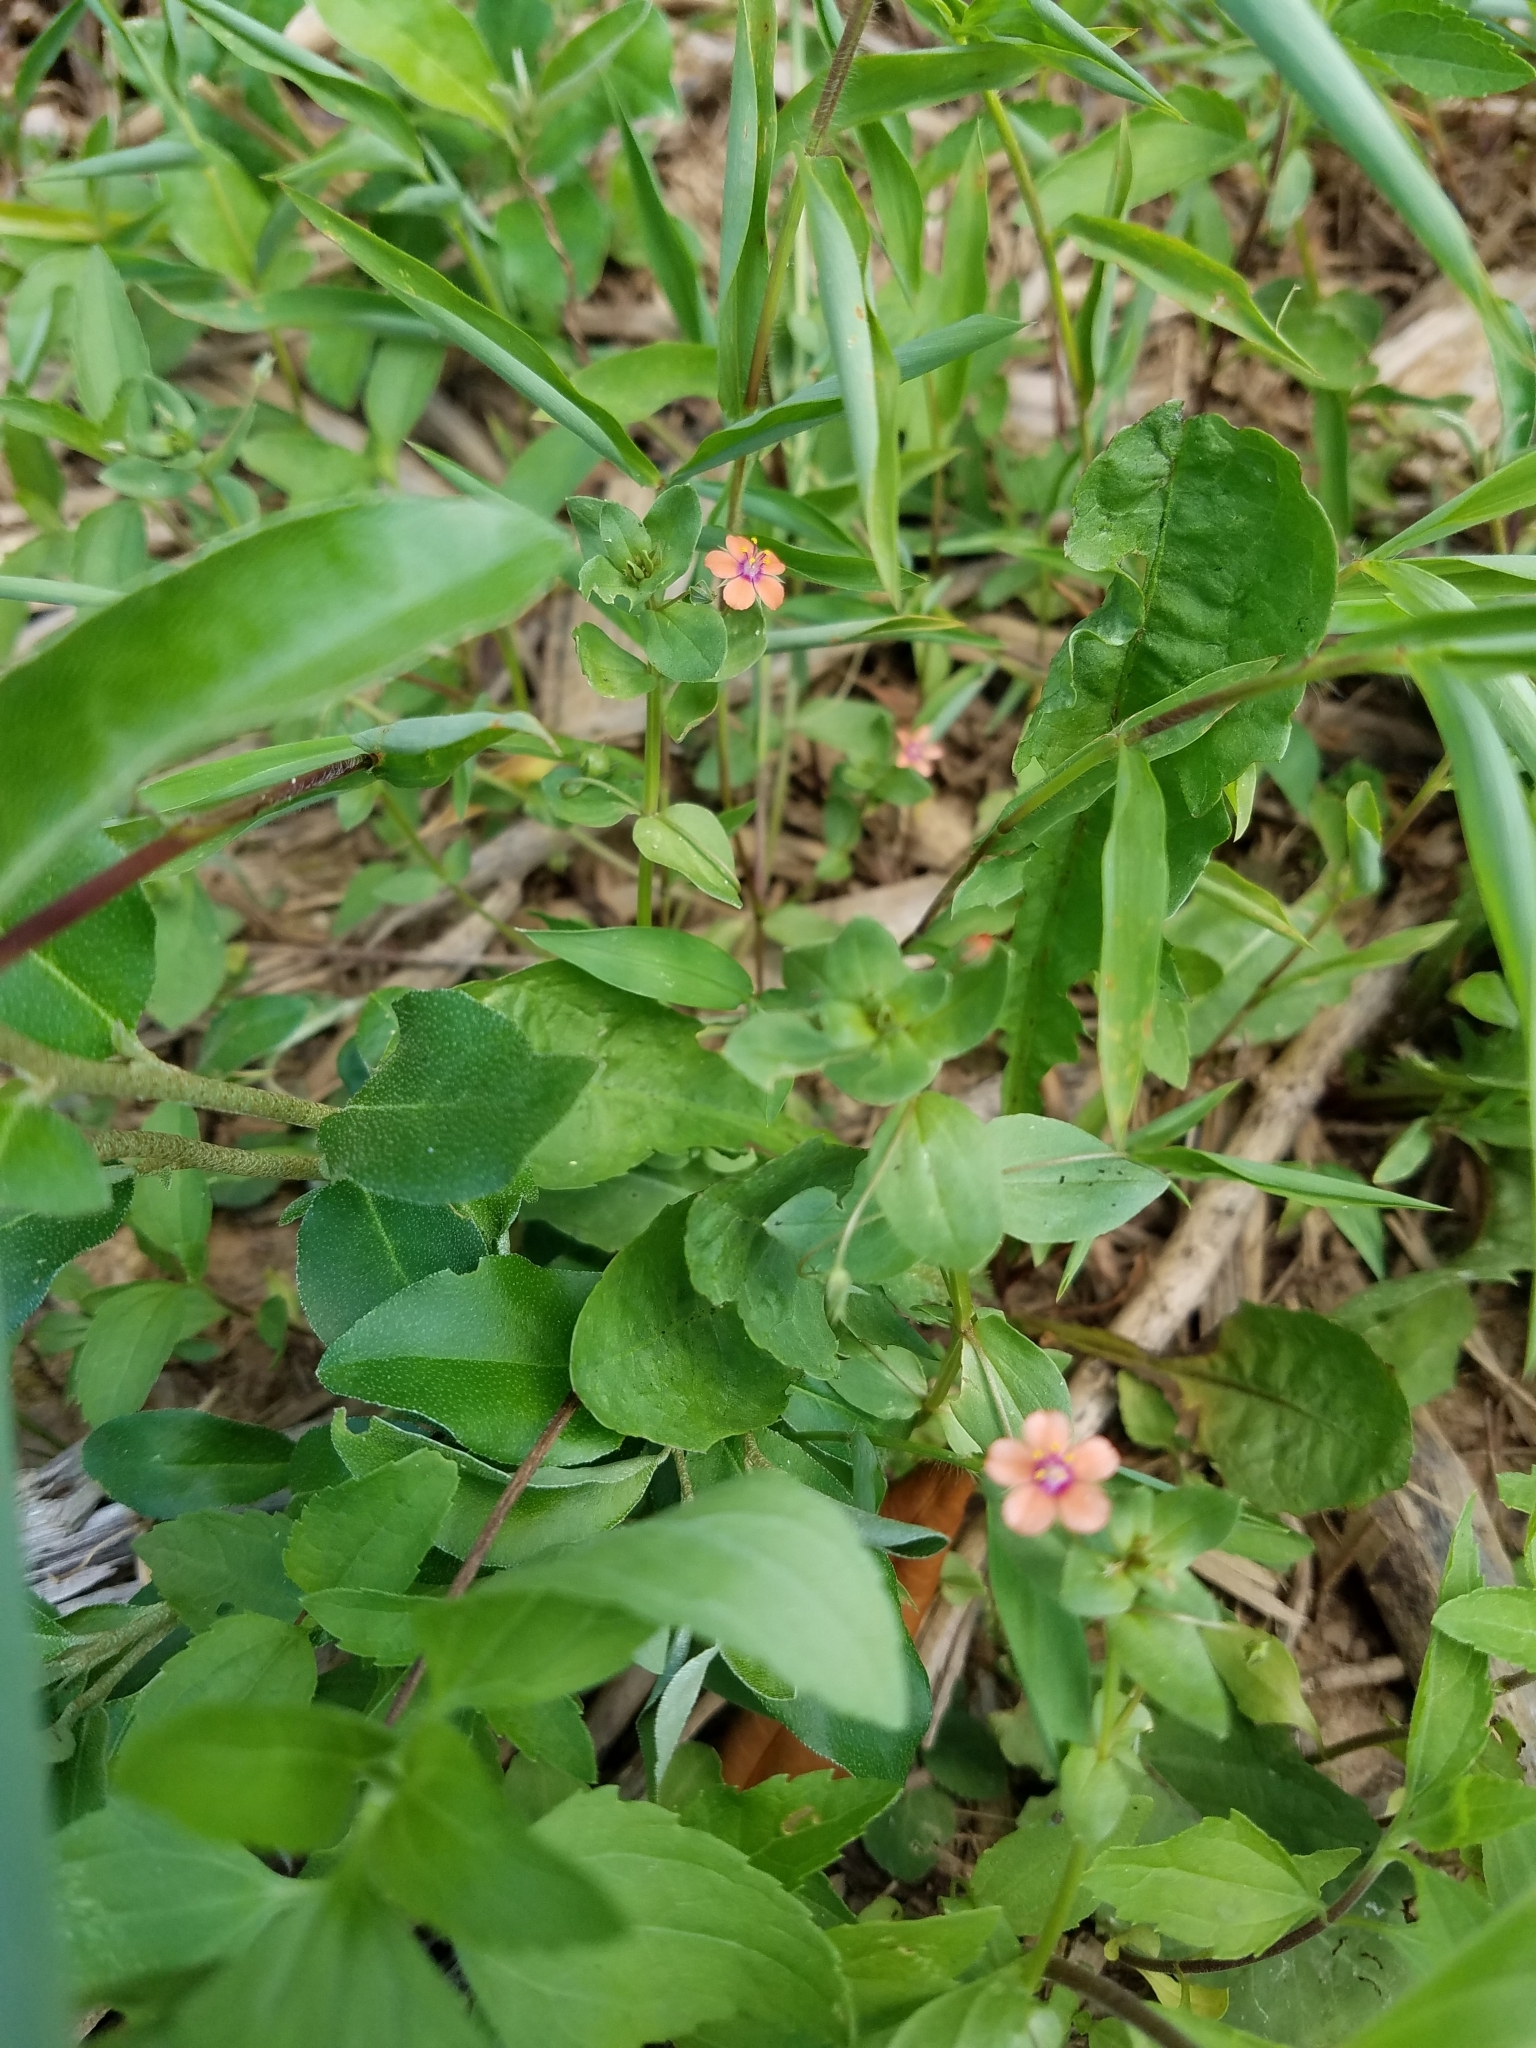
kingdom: Plantae
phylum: Tracheophyta
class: Magnoliopsida
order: Ericales
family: Primulaceae
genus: Lysimachia
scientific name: Lysimachia arvensis
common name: Scarlet pimpernel
